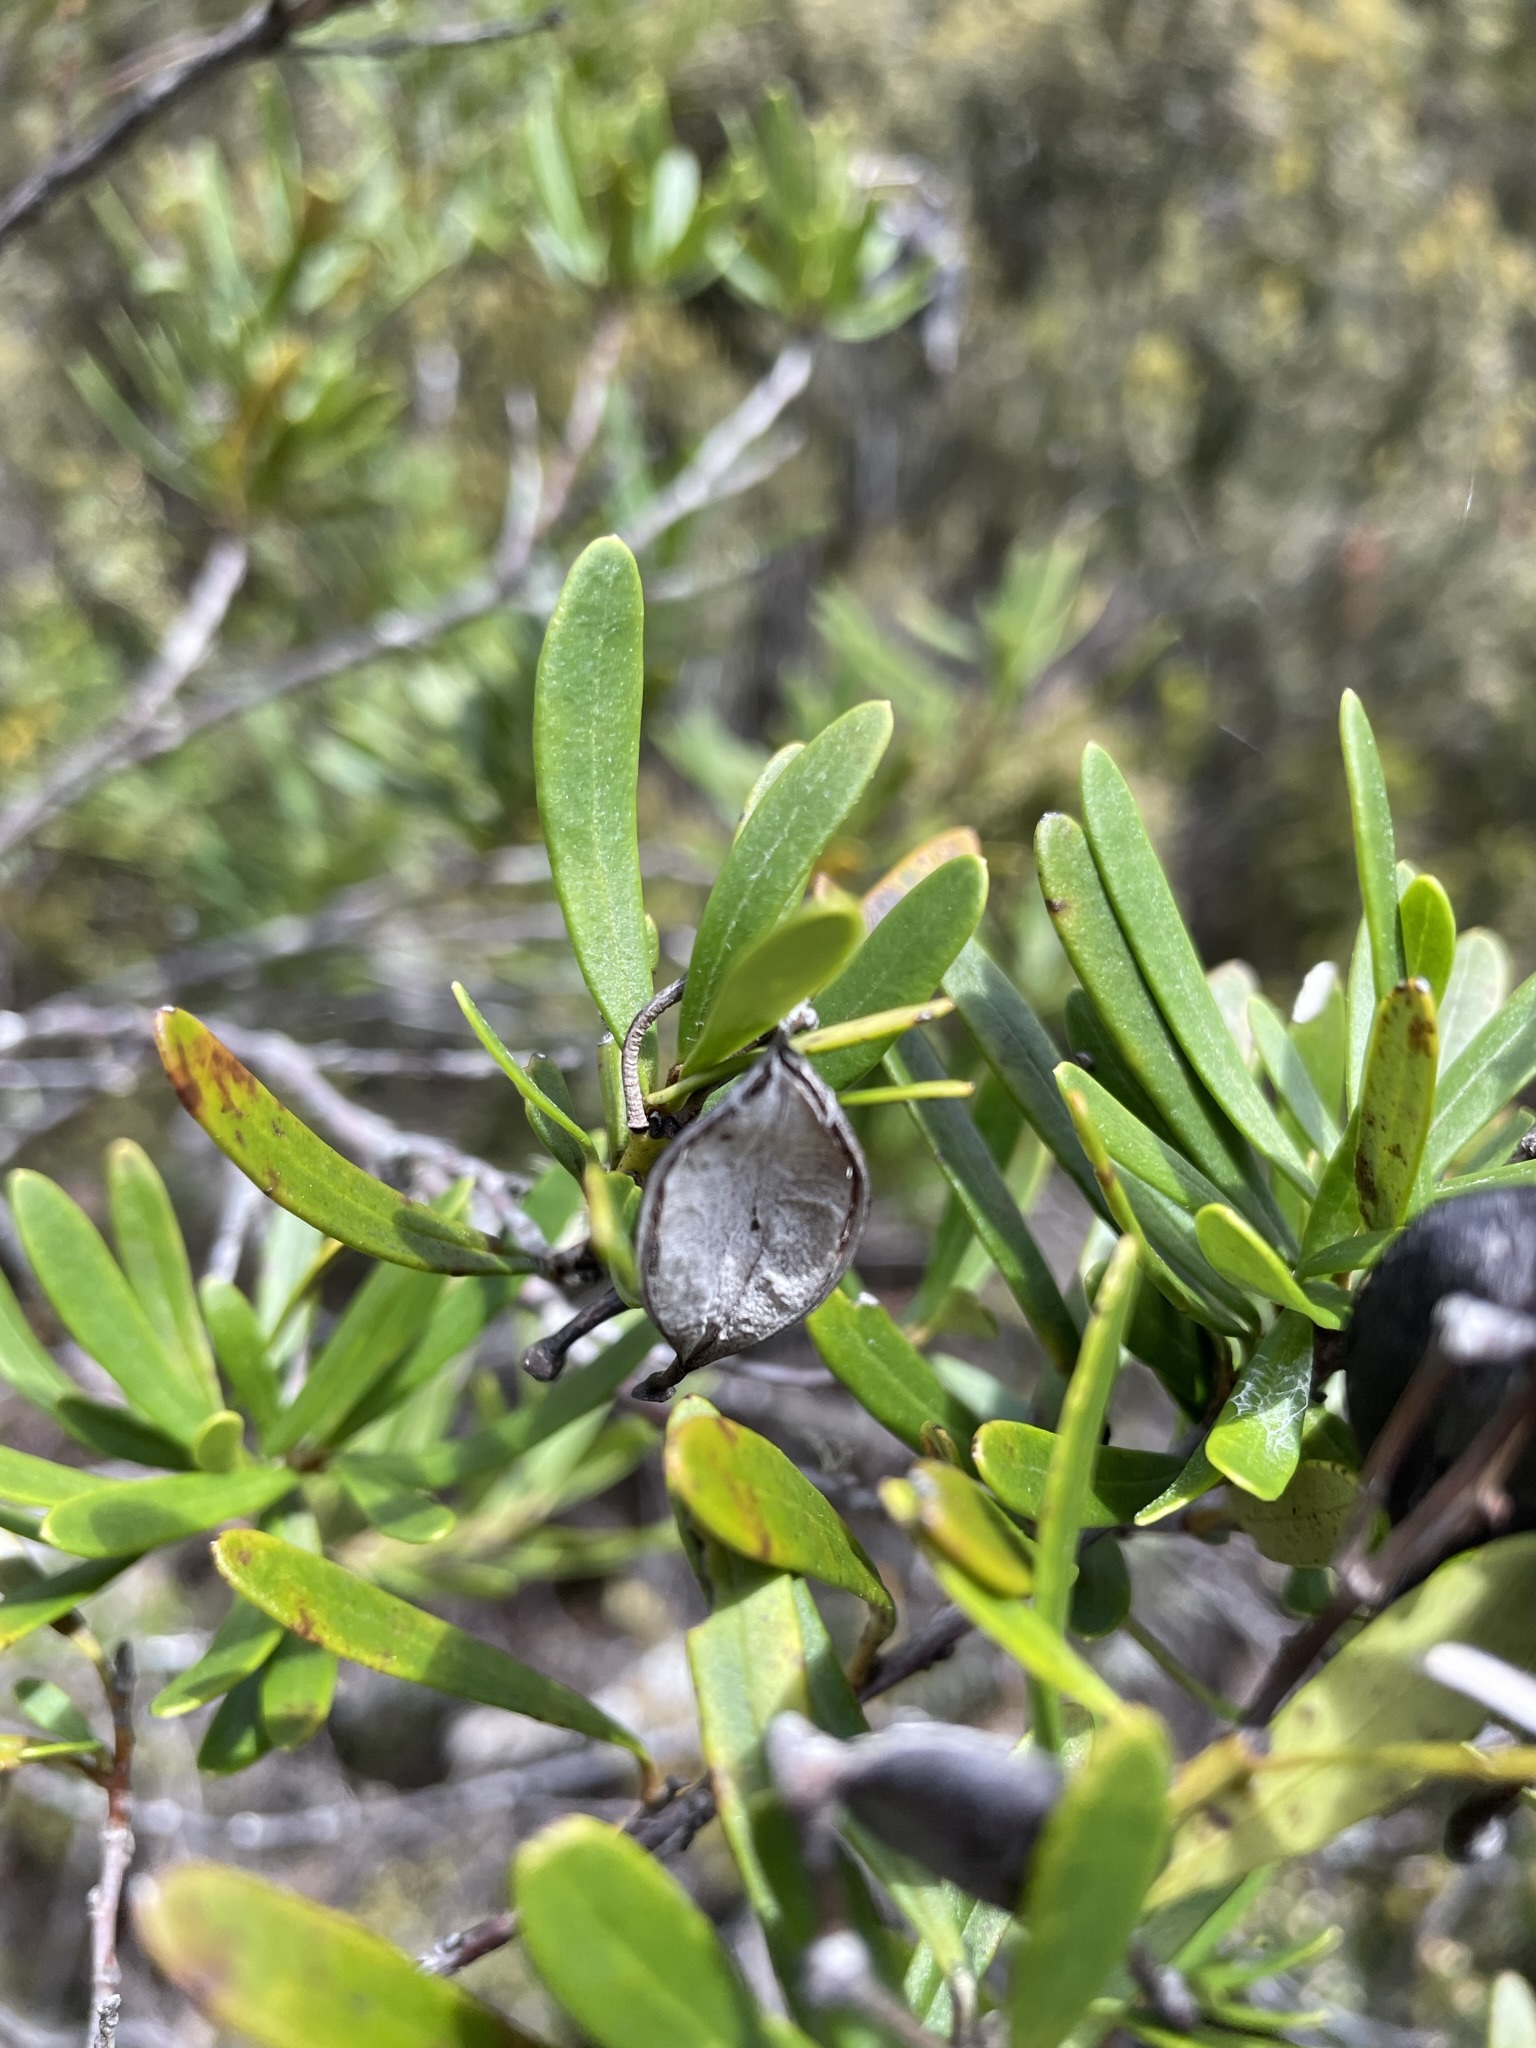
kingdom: Plantae
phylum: Tracheophyta
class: Magnoliopsida
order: Proteales
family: Proteaceae
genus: Lomatia
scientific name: Lomatia polymorpha
